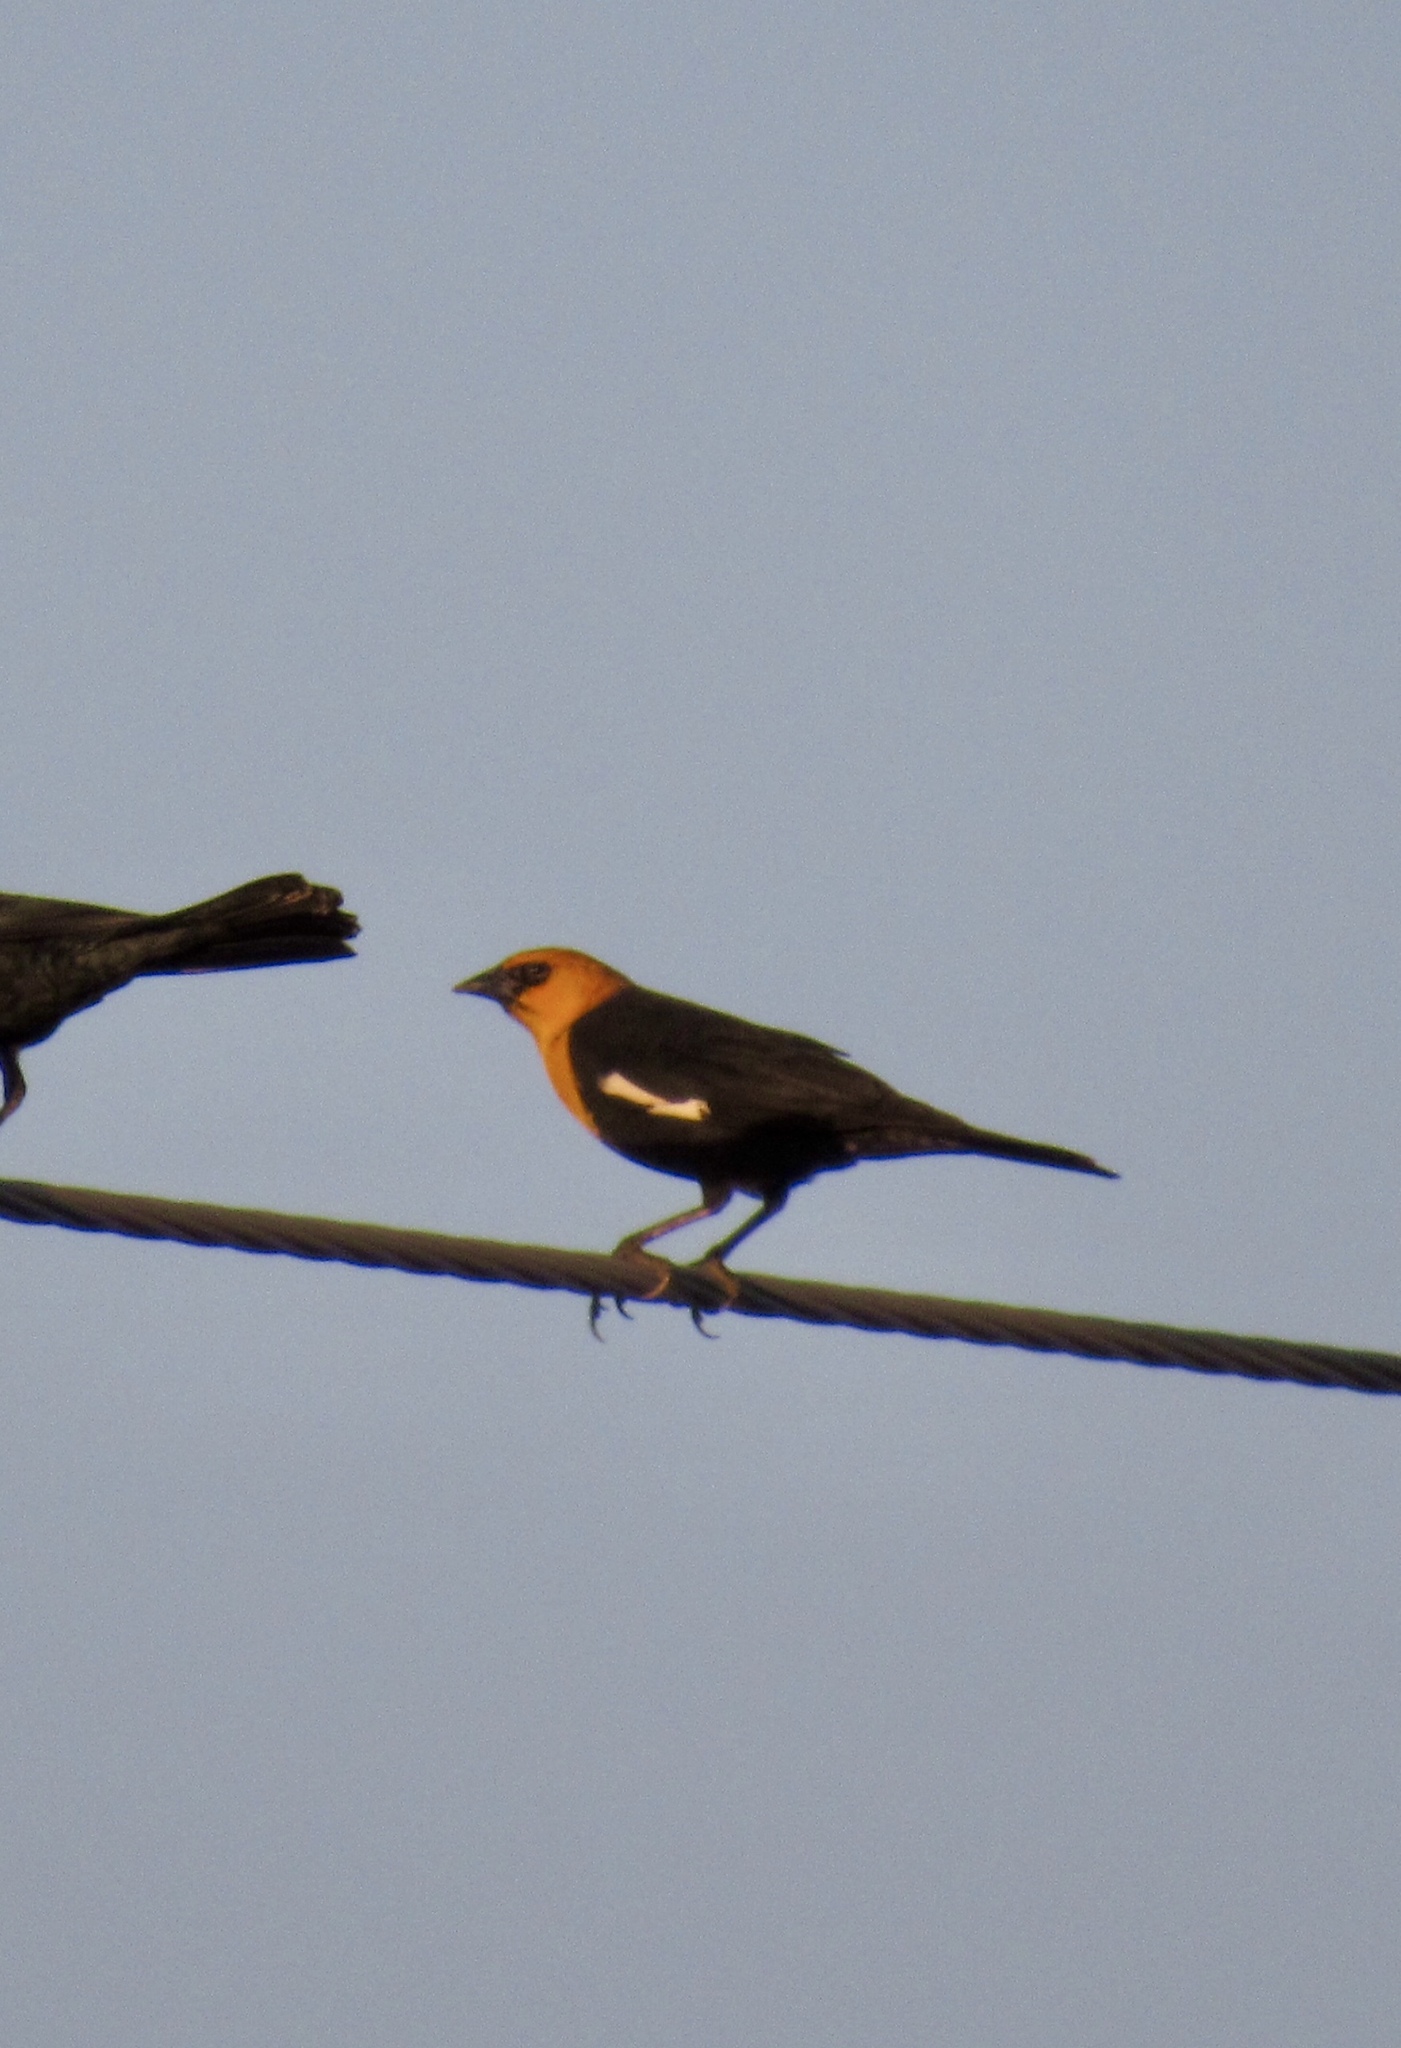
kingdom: Animalia
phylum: Chordata
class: Aves
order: Passeriformes
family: Icteridae
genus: Xanthocephalus
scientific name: Xanthocephalus xanthocephalus
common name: Yellow-headed blackbird
